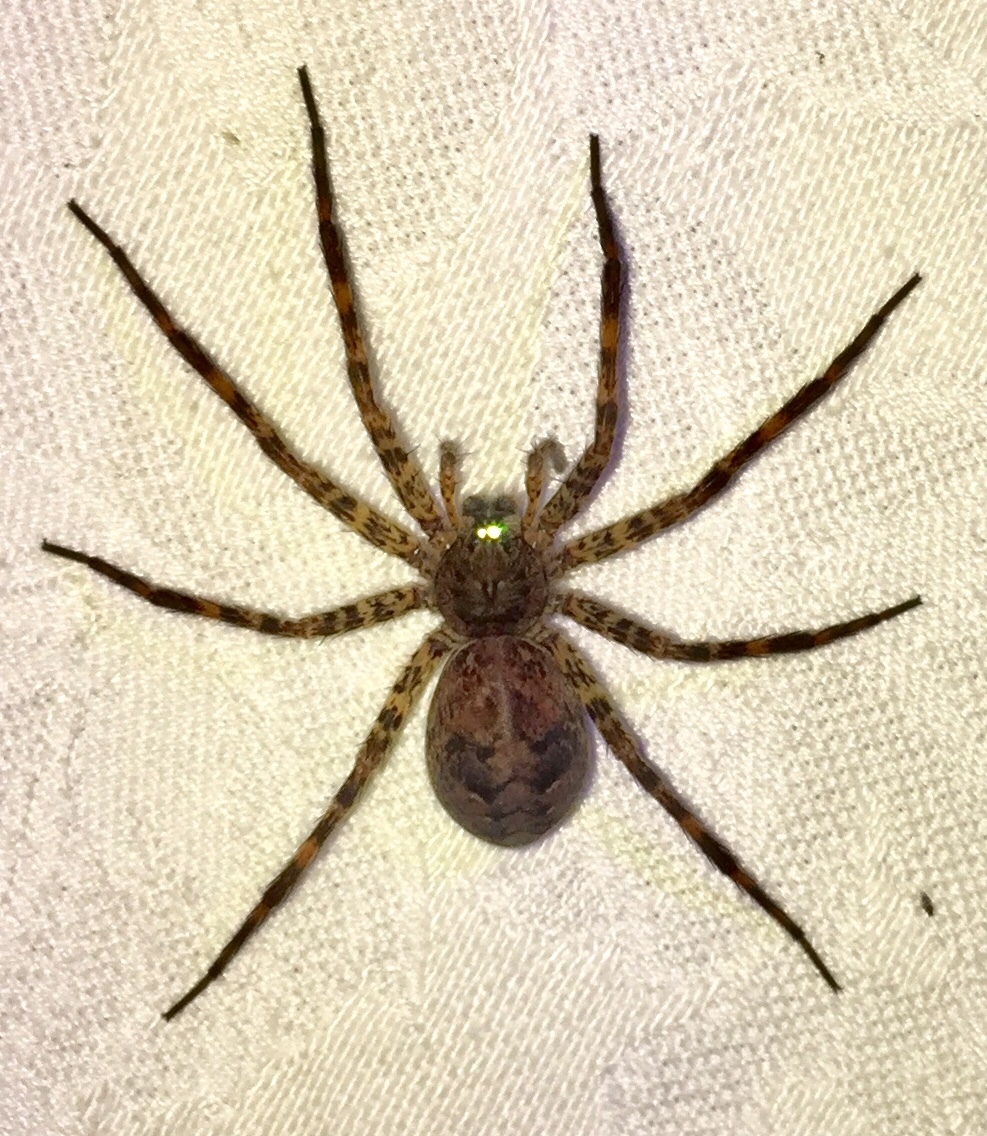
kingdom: Animalia
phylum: Arthropoda
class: Arachnida
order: Araneae
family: Pisauridae
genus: Dolomedes
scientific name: Dolomedes tenebrosus
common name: Dark fishing spider
